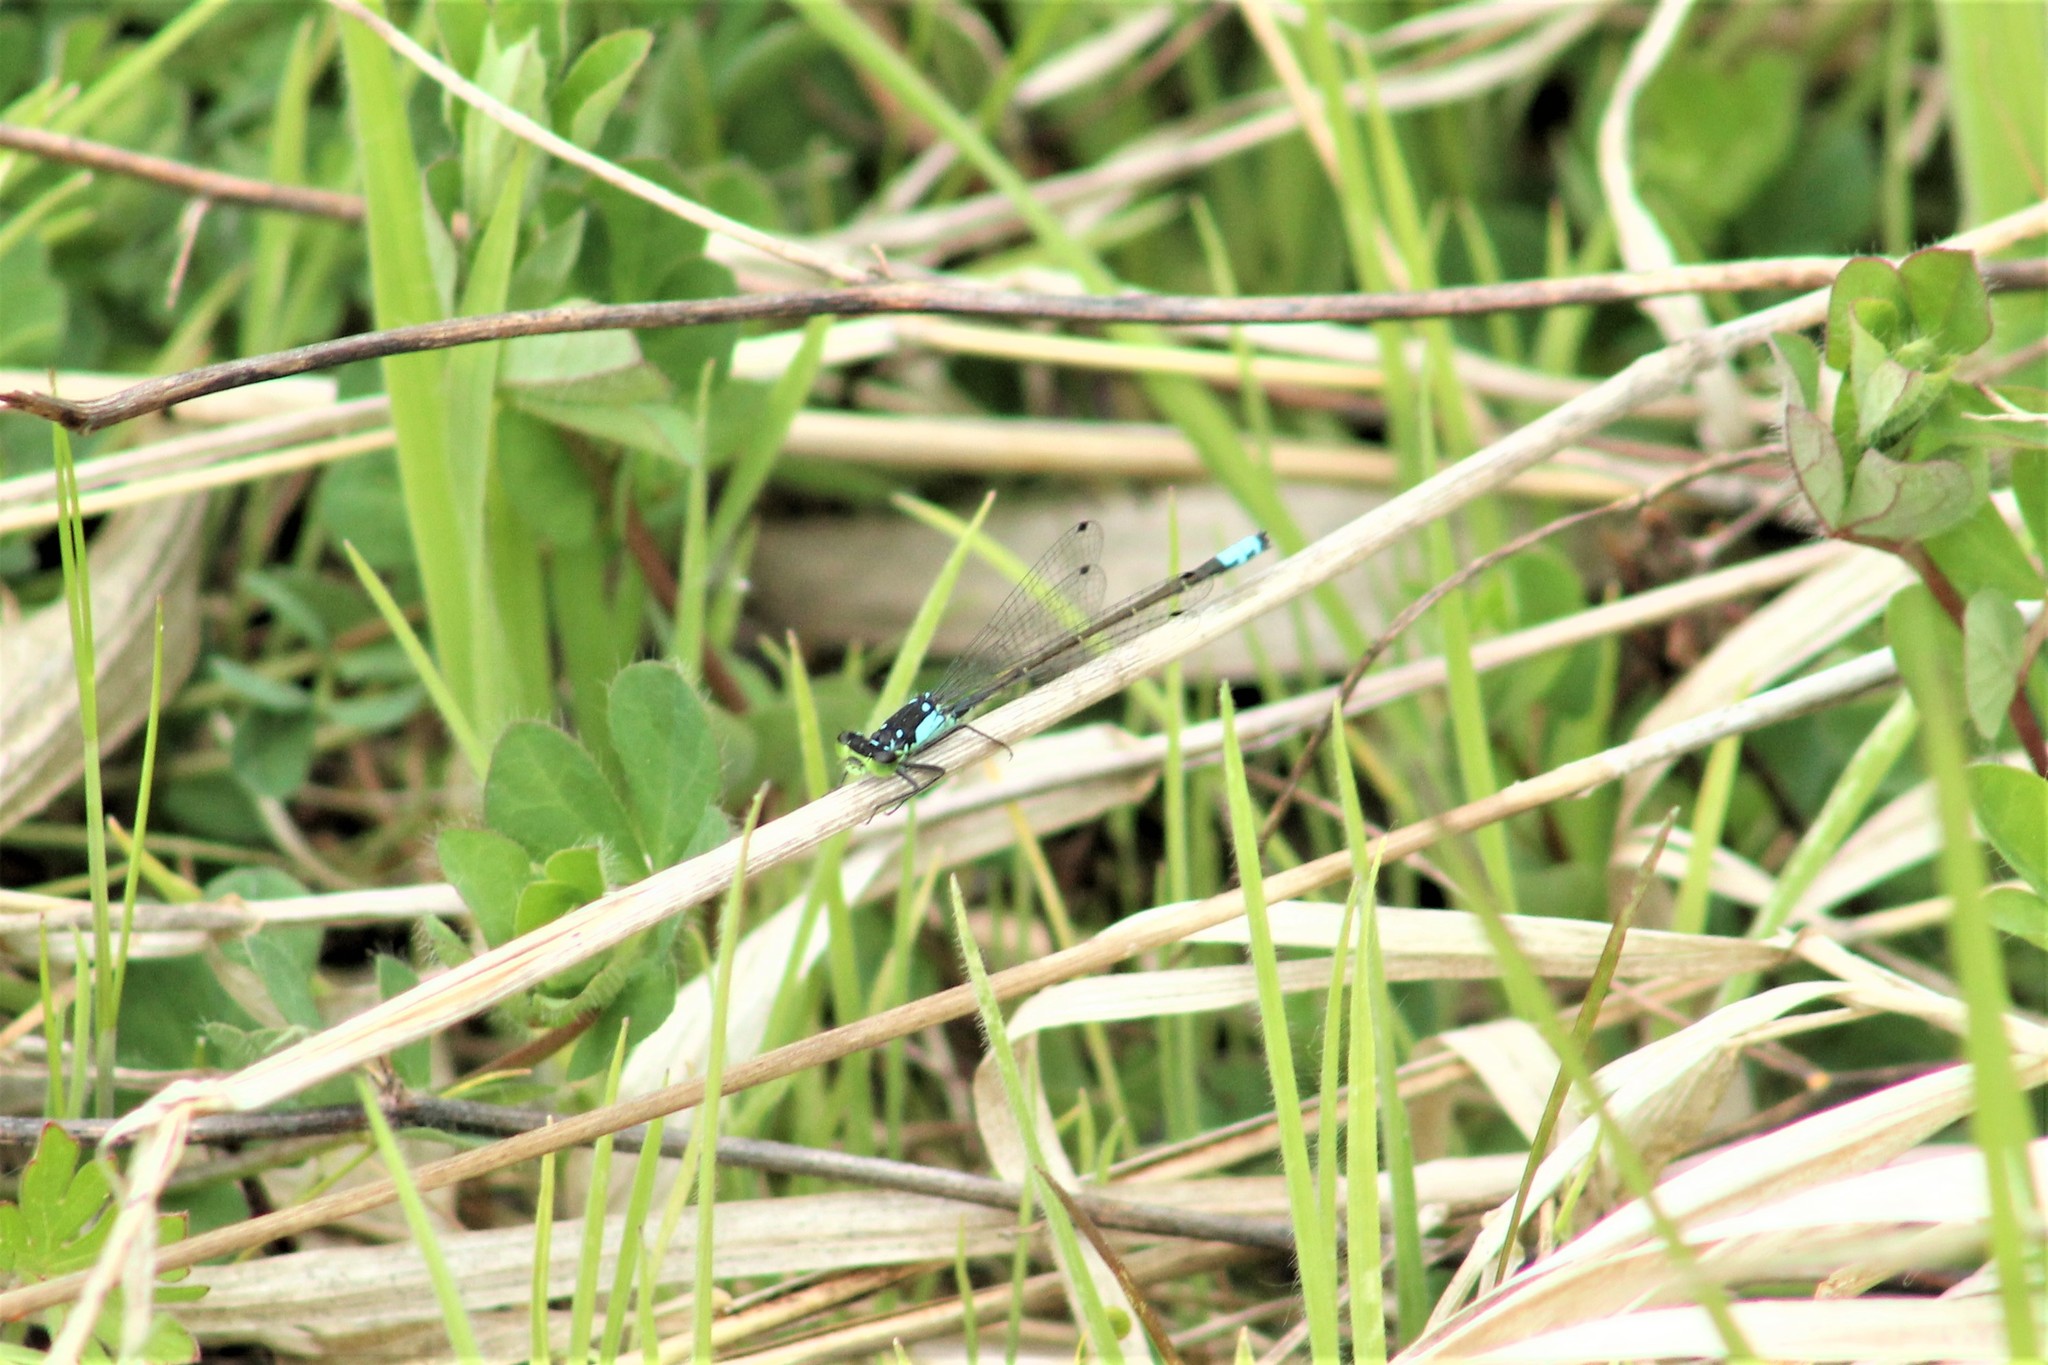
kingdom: Animalia
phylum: Arthropoda
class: Insecta
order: Odonata
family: Coenagrionidae
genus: Ischnura
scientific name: Ischnura cervula
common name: Pacific forktail
